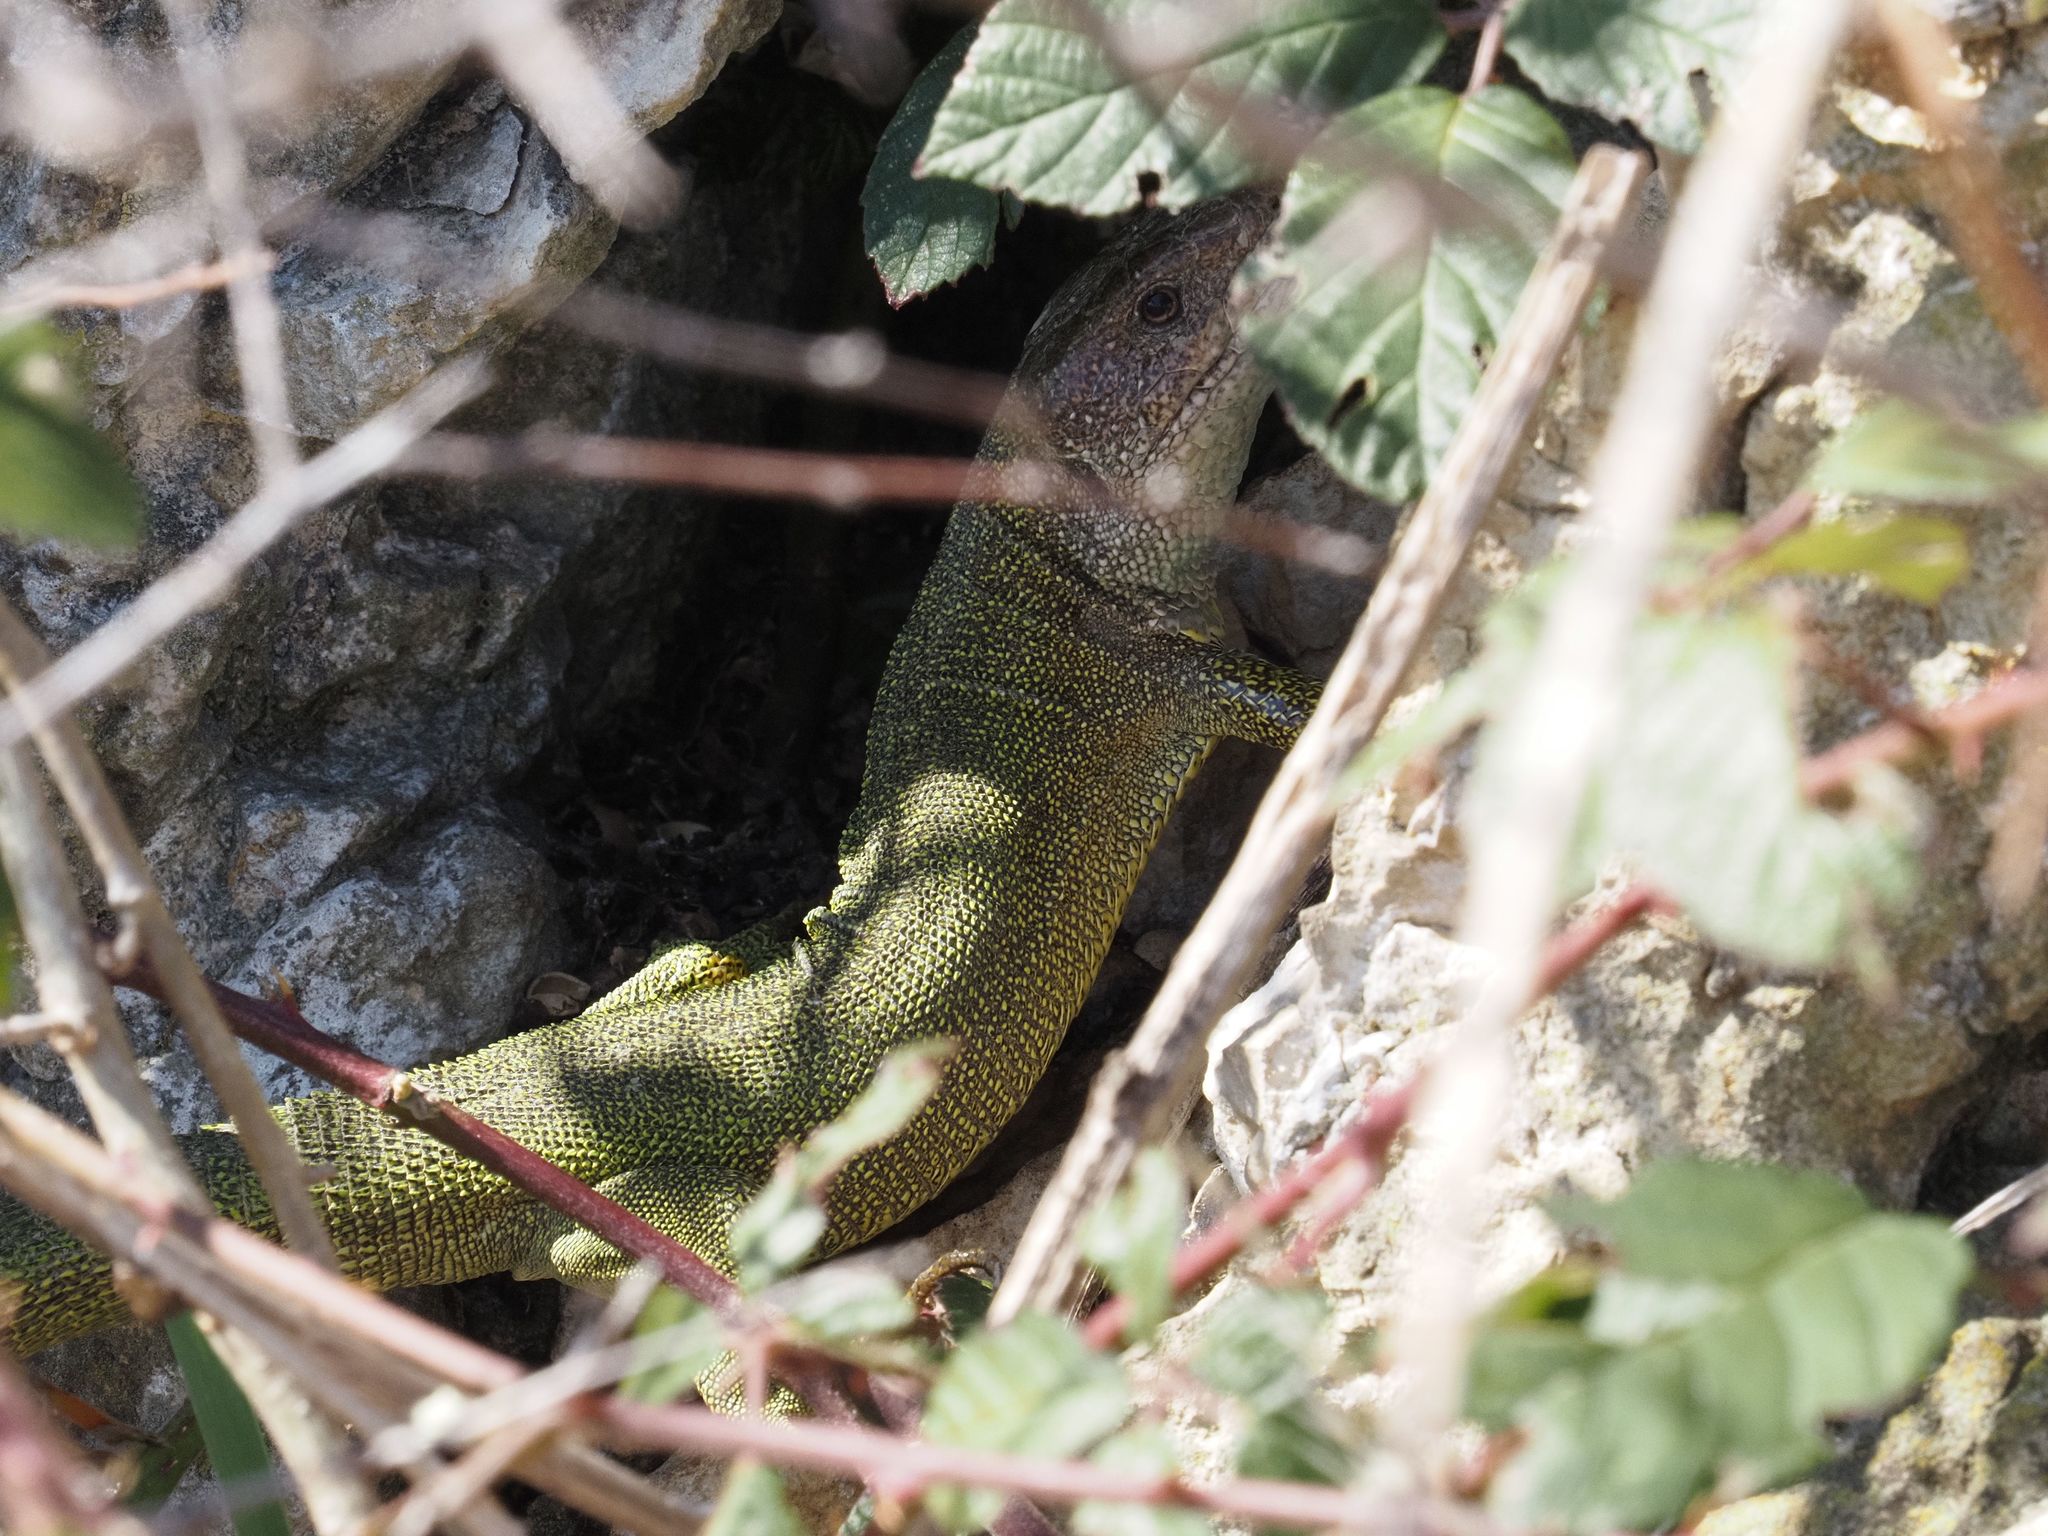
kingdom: Animalia
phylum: Chordata
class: Squamata
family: Lacertidae
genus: Lacerta
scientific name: Lacerta viridis
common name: European green lizard
